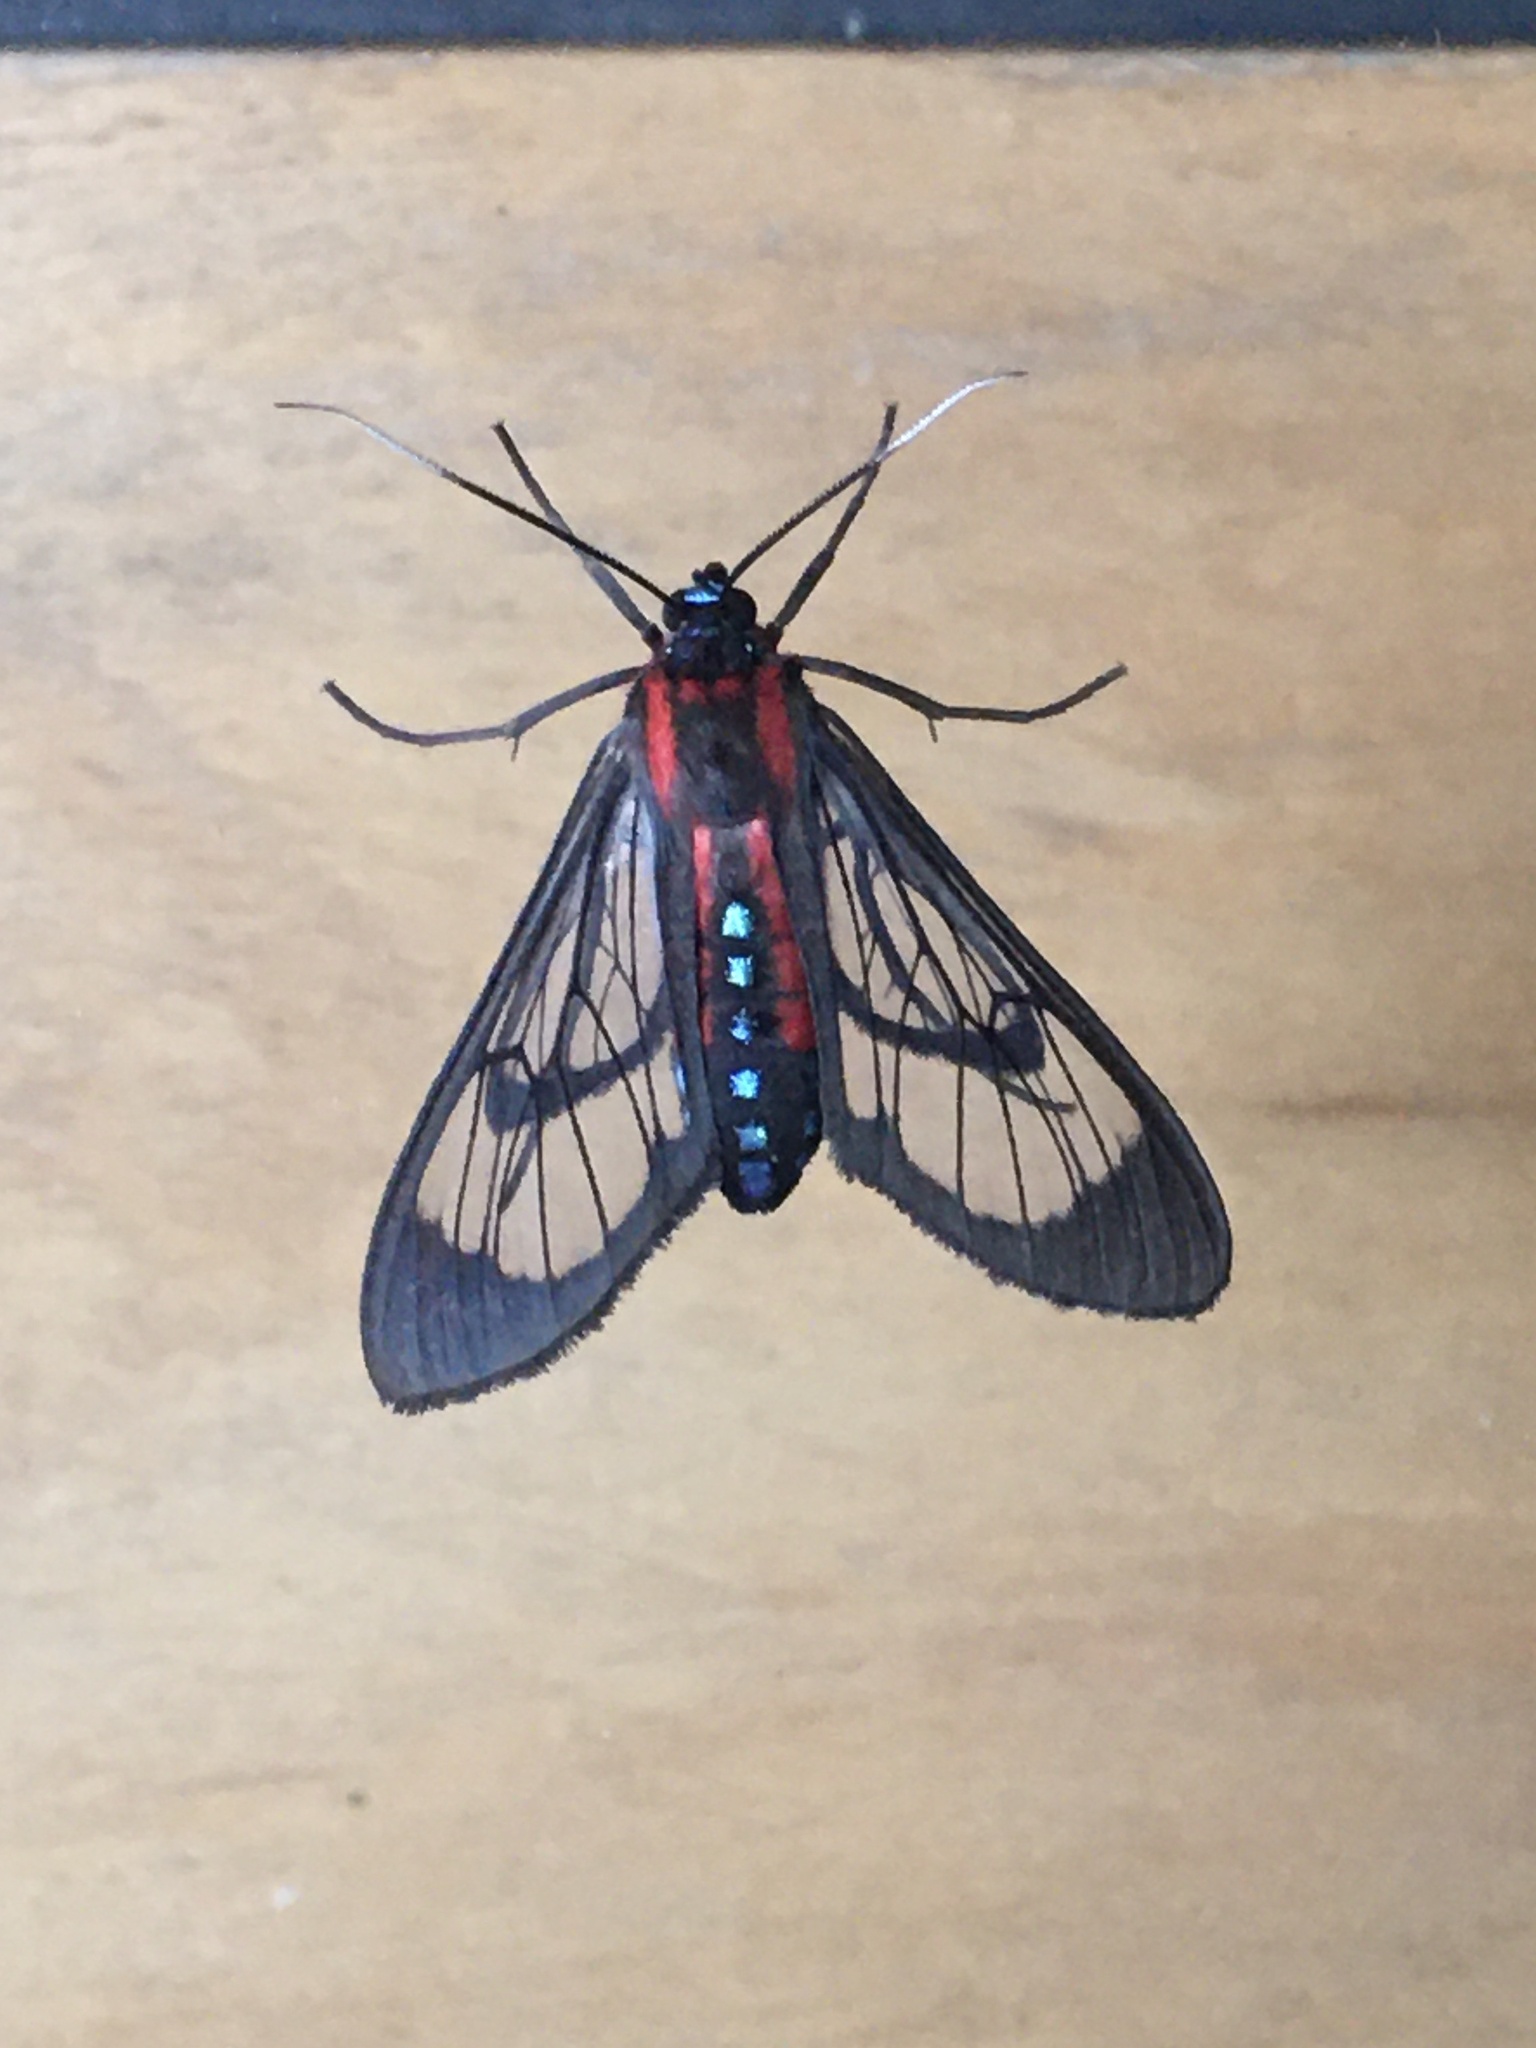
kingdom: Animalia
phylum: Arthropoda
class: Insecta
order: Lepidoptera
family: Erebidae
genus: Cosmosoma
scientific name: Cosmosoma auge
